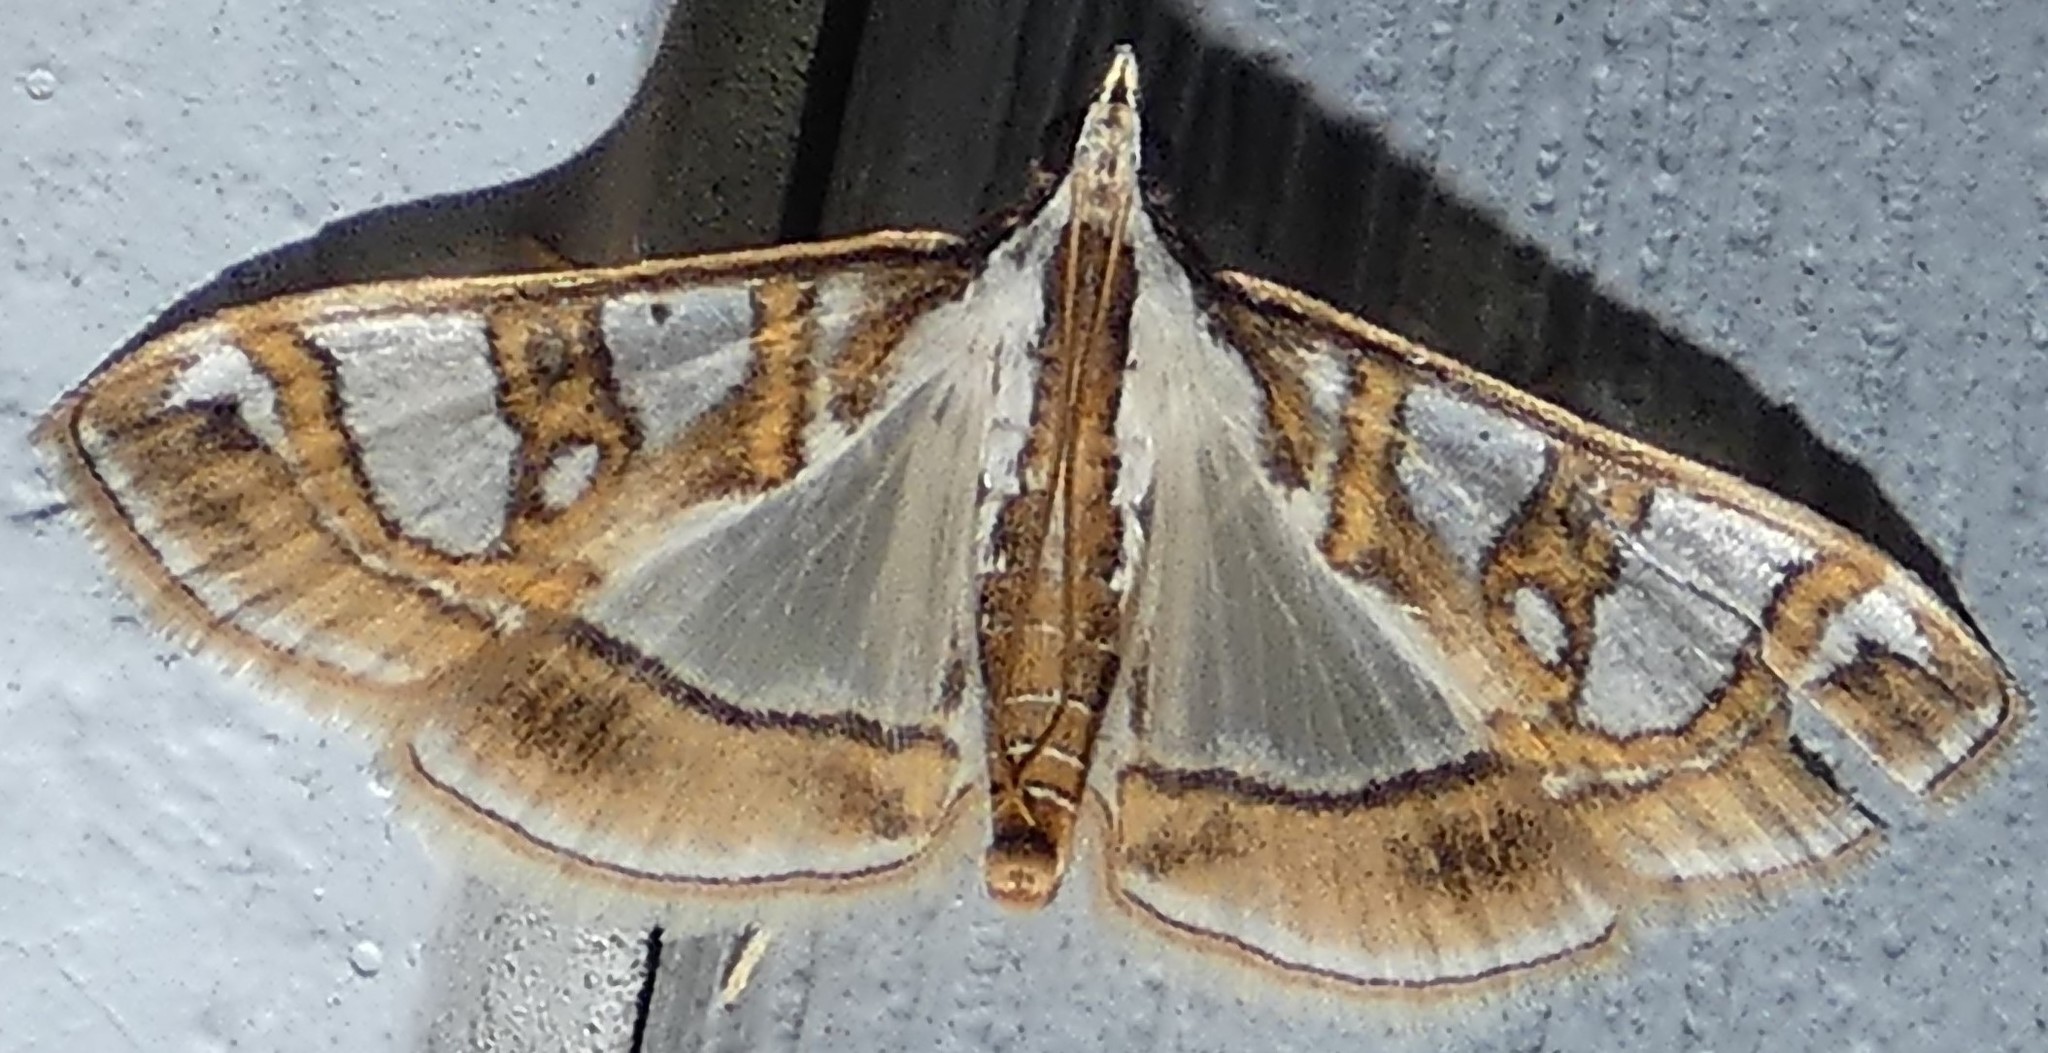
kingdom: Animalia
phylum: Arthropoda
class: Insecta
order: Lepidoptera
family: Crambidae
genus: Glyphodes
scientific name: Glyphodes pyloalis
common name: Lesser mulberry snout moth
